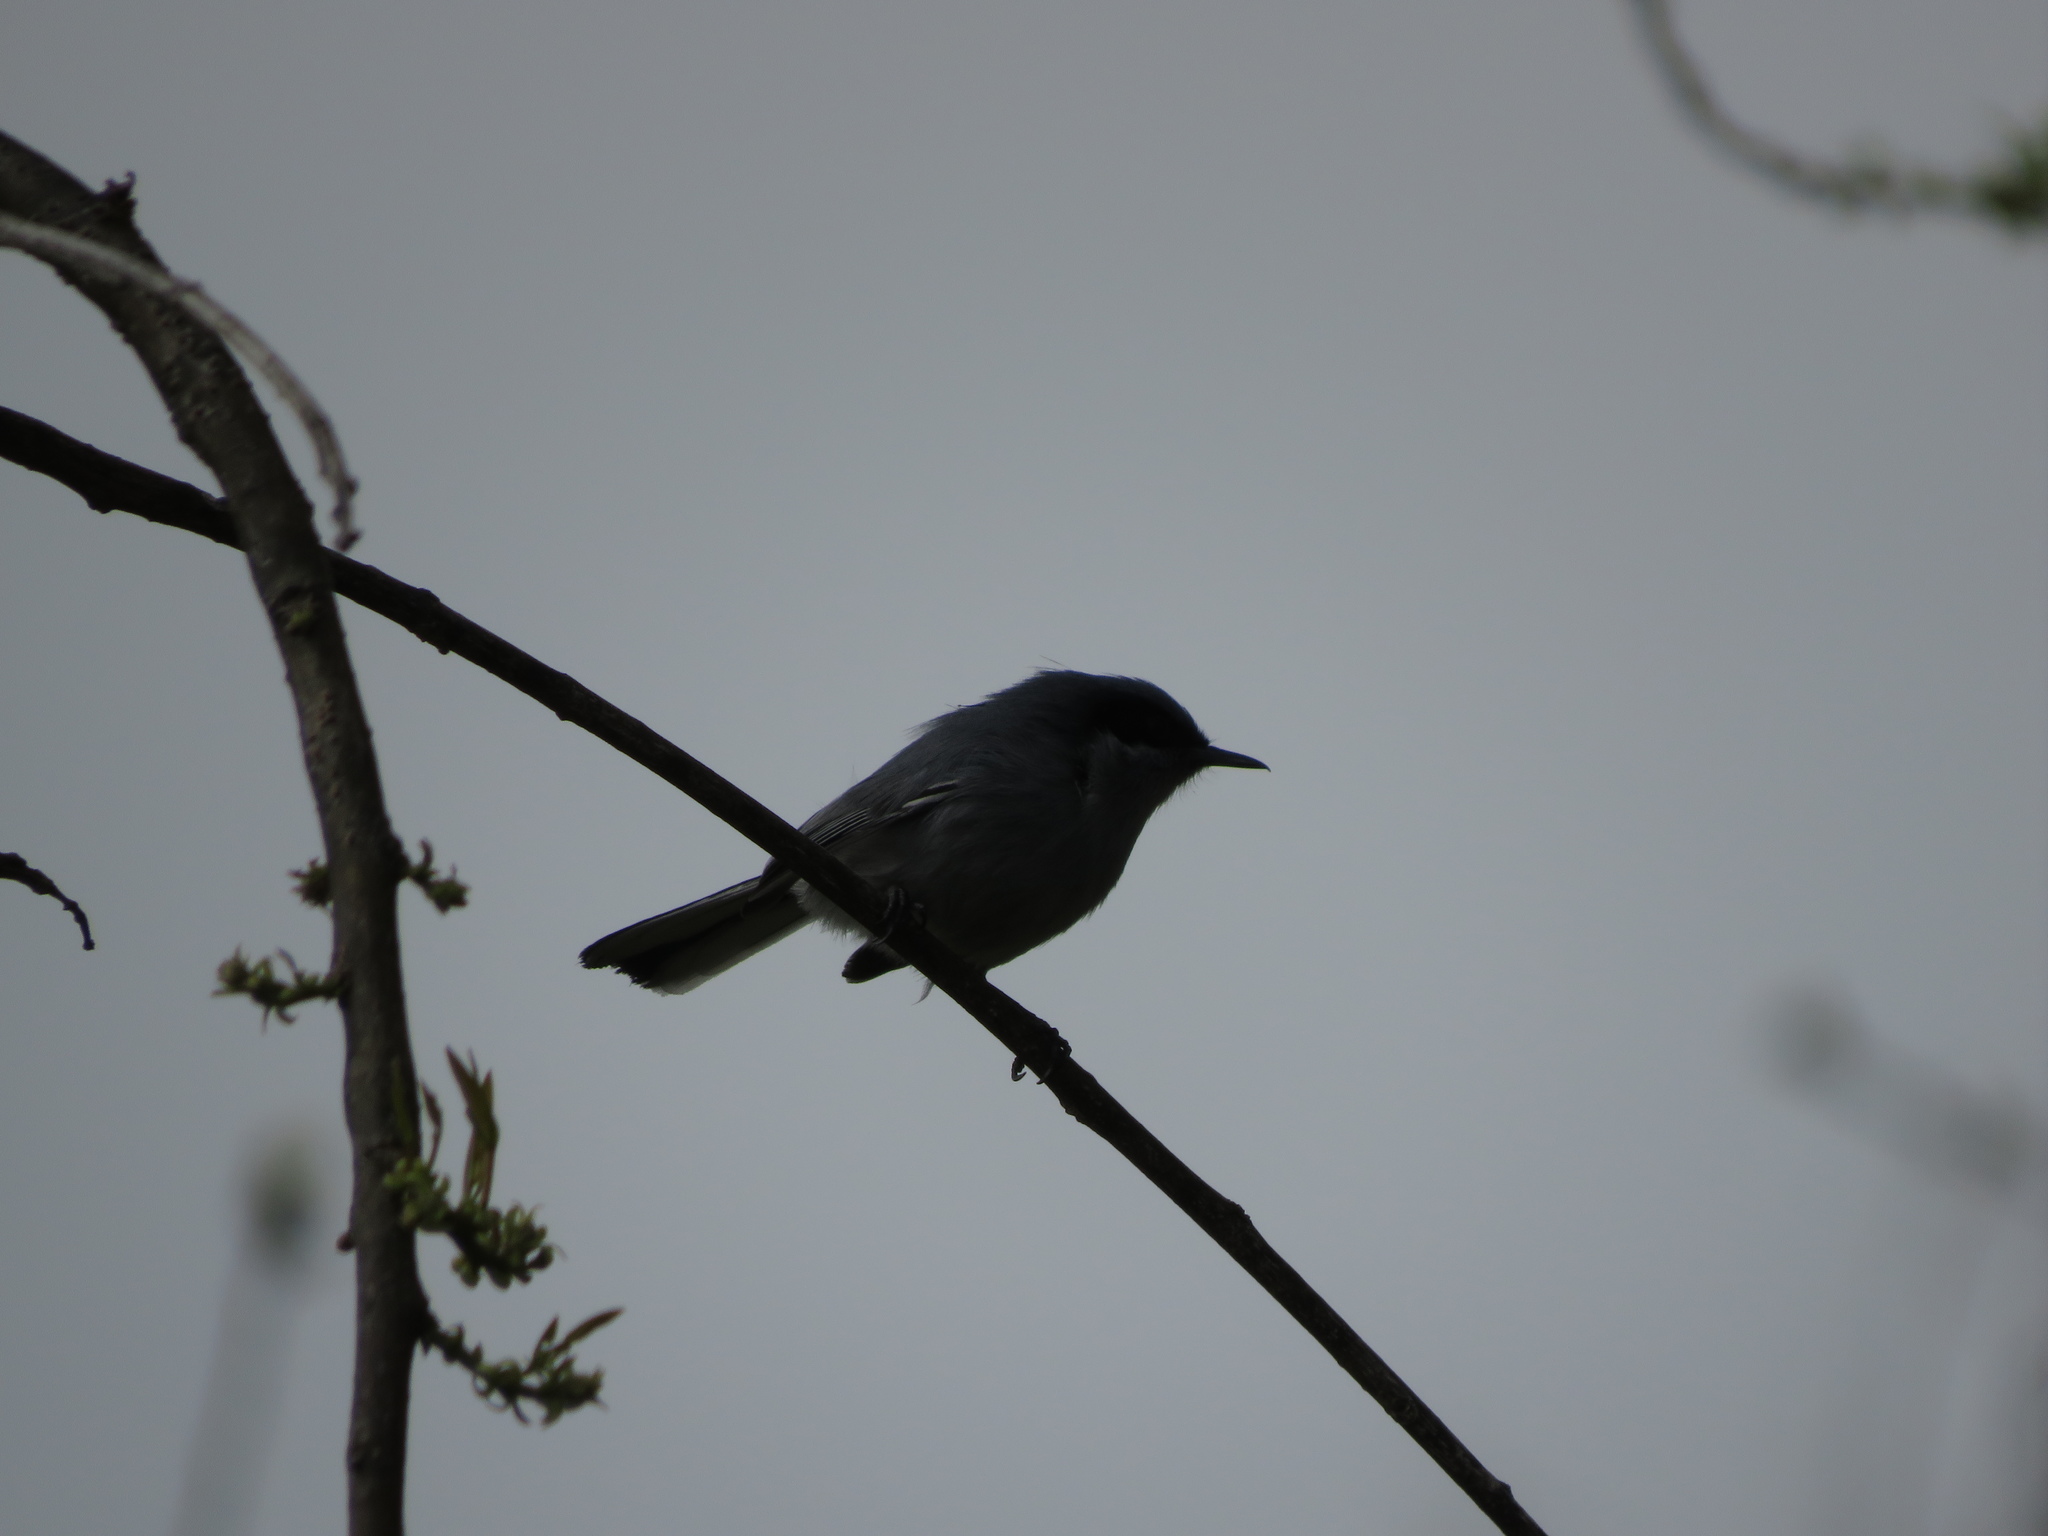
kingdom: Animalia
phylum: Chordata
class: Aves
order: Passeriformes
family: Polioptilidae
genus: Polioptila
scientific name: Polioptila dumicola
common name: Masked gnatcatcher
